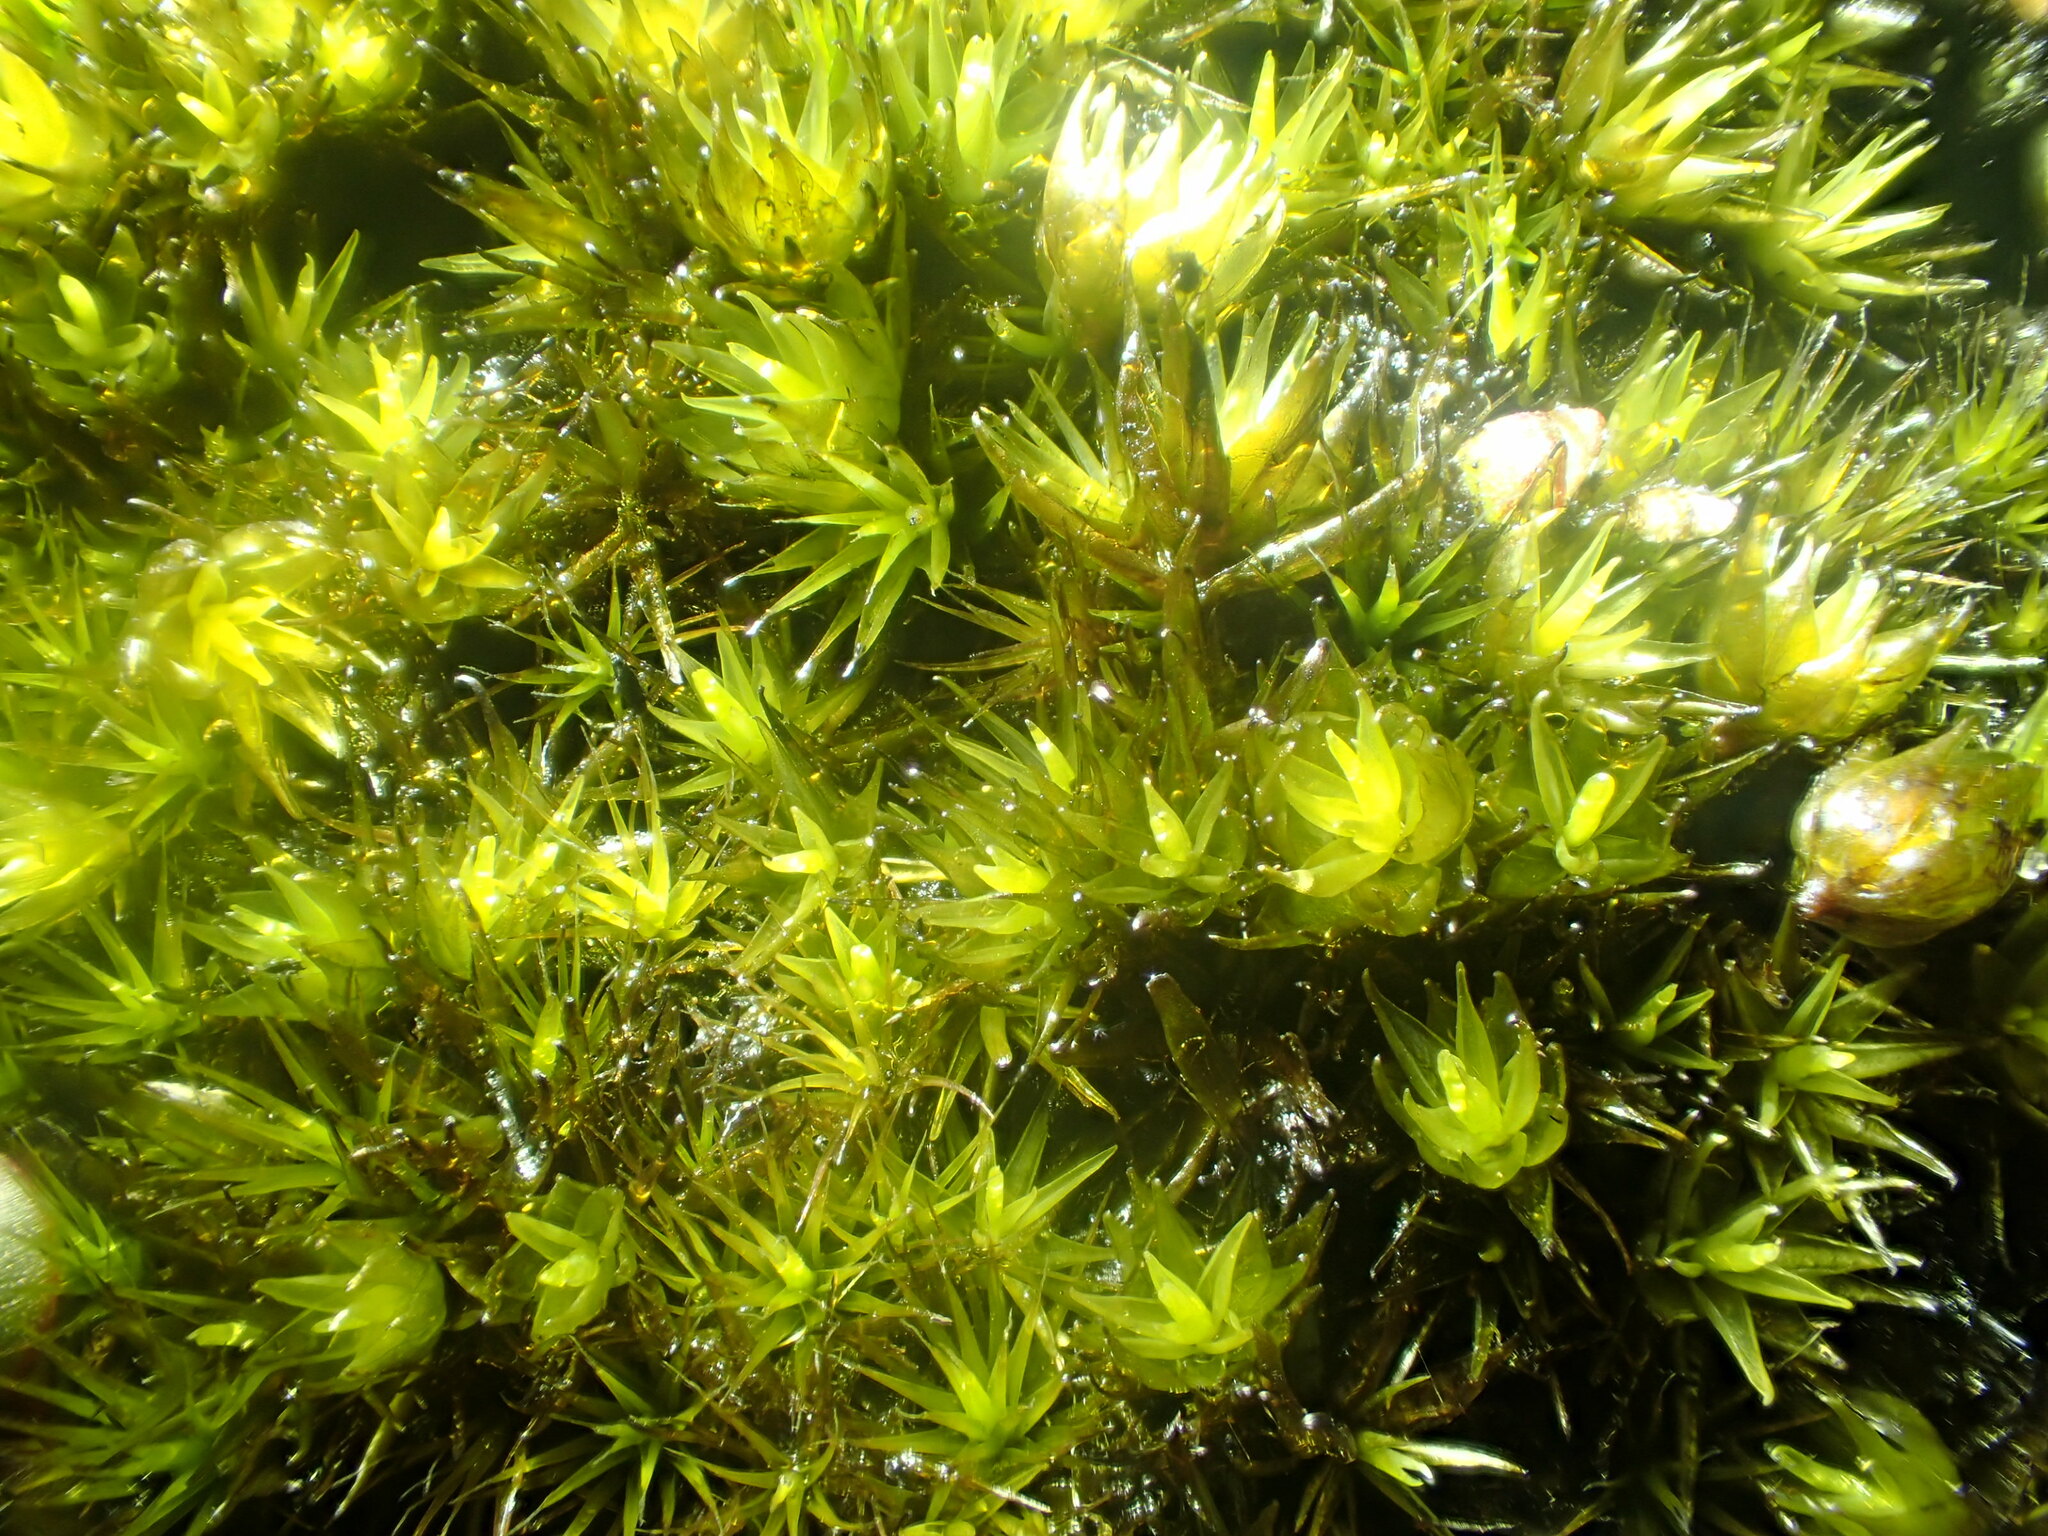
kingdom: Plantae
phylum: Bryophyta
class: Bryopsida
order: Dicranales
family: Leucobryaceae
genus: Campylopus
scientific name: Campylopus acuminatus
